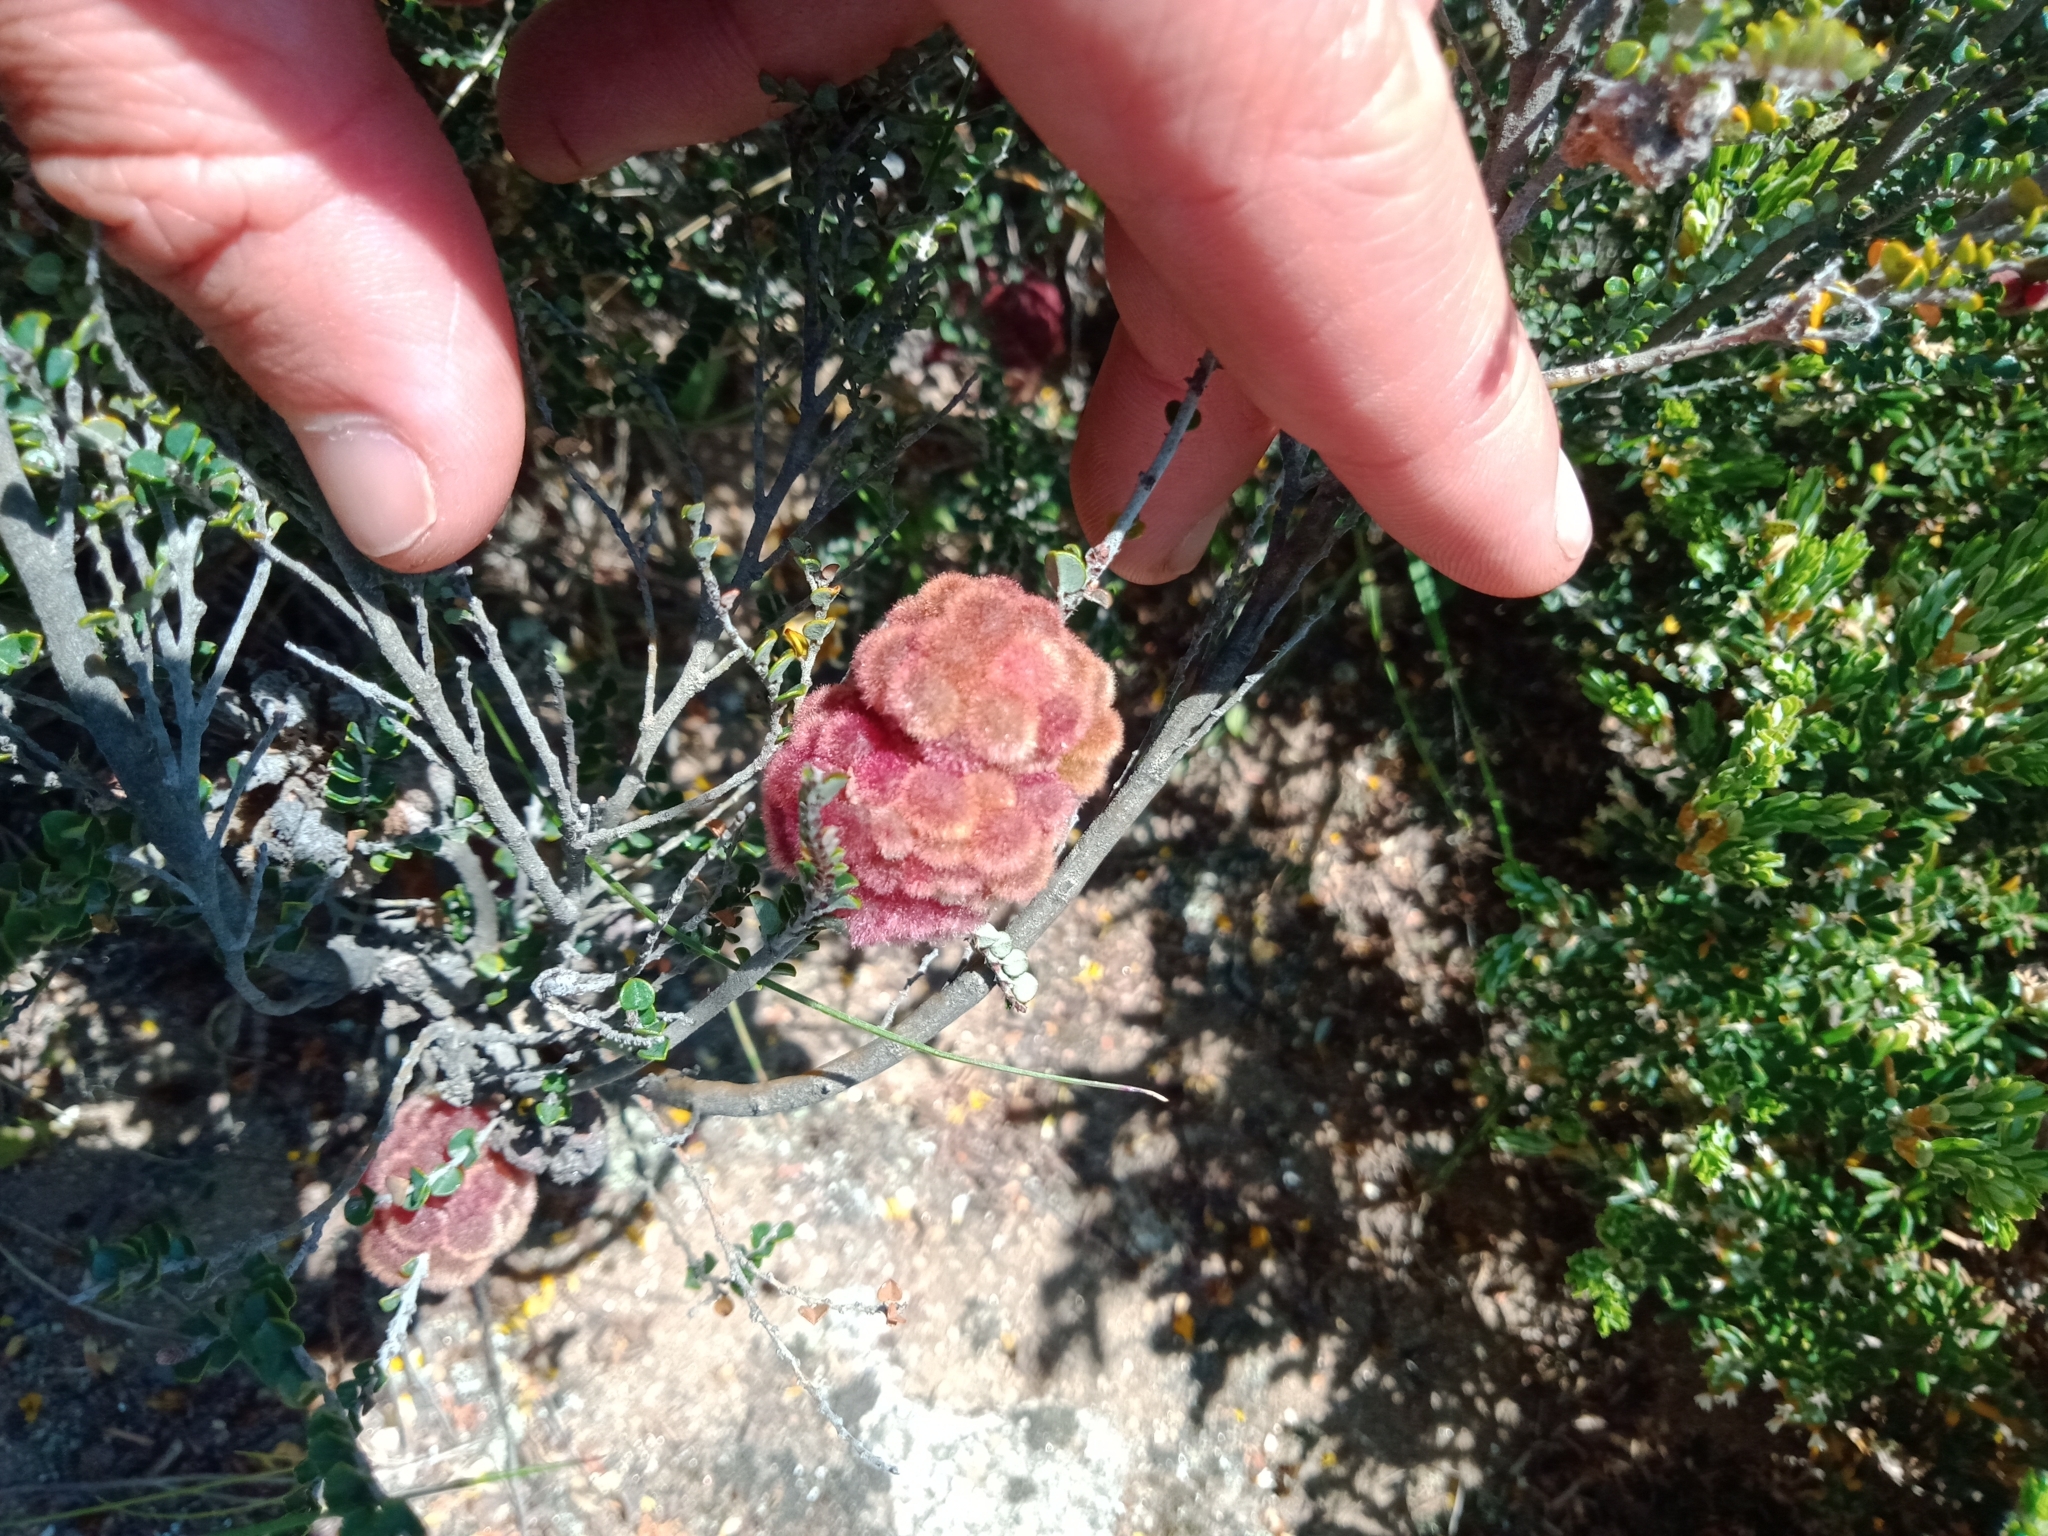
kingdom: Animalia
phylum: Arthropoda
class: Insecta
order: Hymenoptera
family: Tanaostigmatidae
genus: Tanaostigmodes
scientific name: Tanaostigmodes
